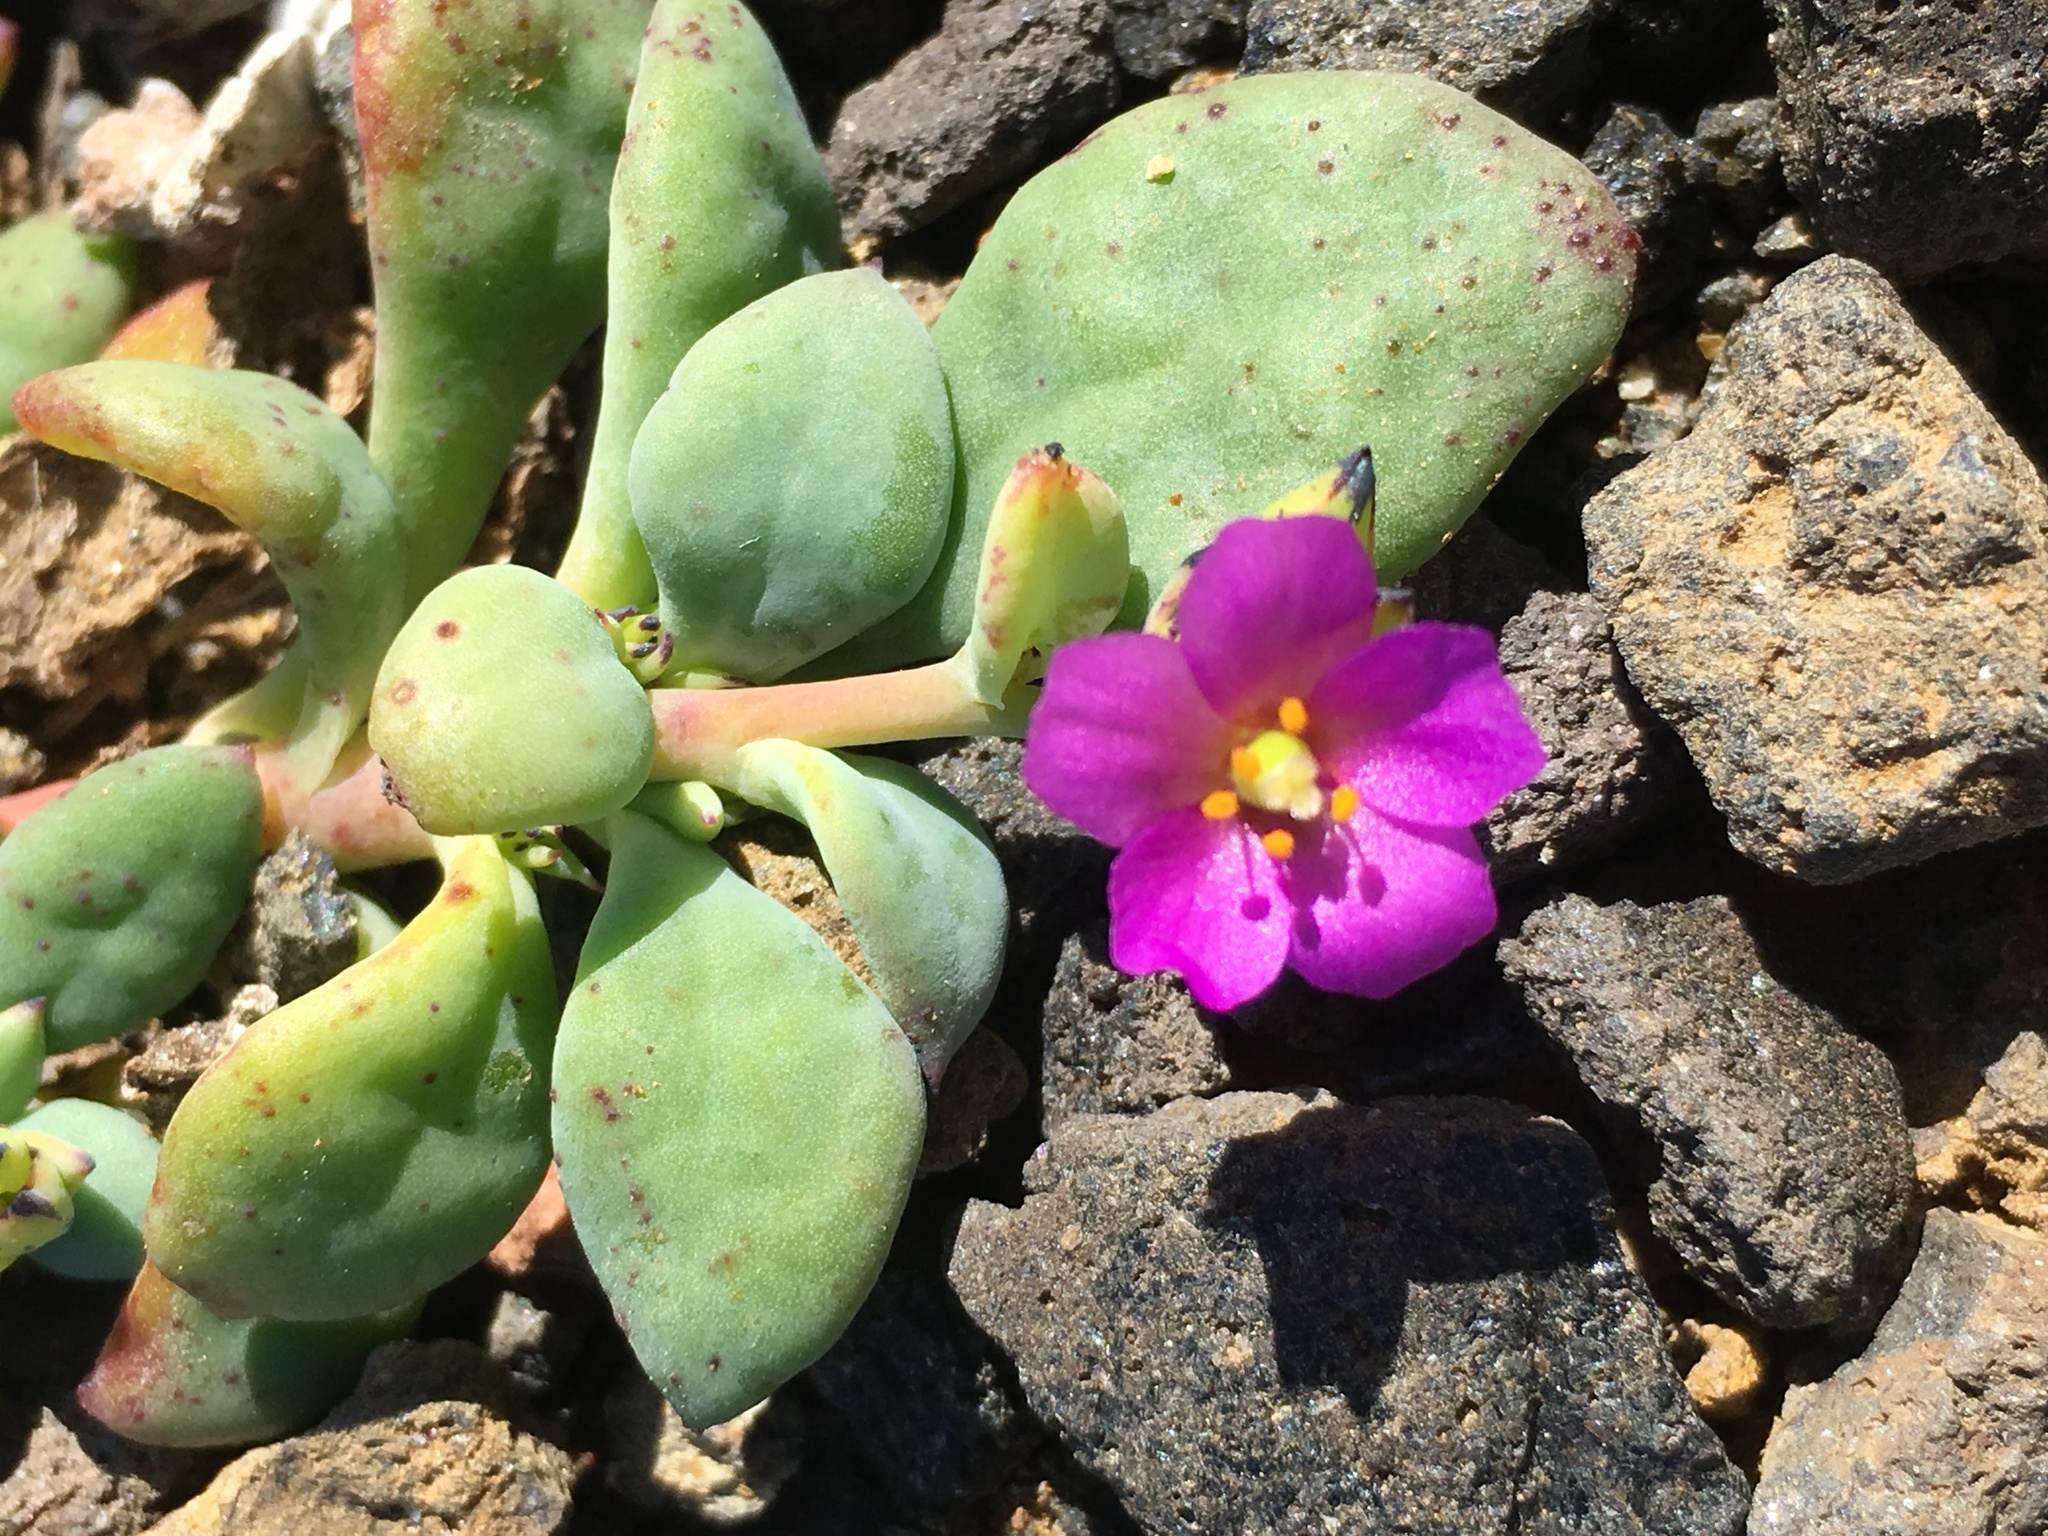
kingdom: Plantae
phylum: Tracheophyta
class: Magnoliopsida
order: Caryophyllales
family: Montiaceae
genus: Cistanthe
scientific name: Cistanthe maritima
